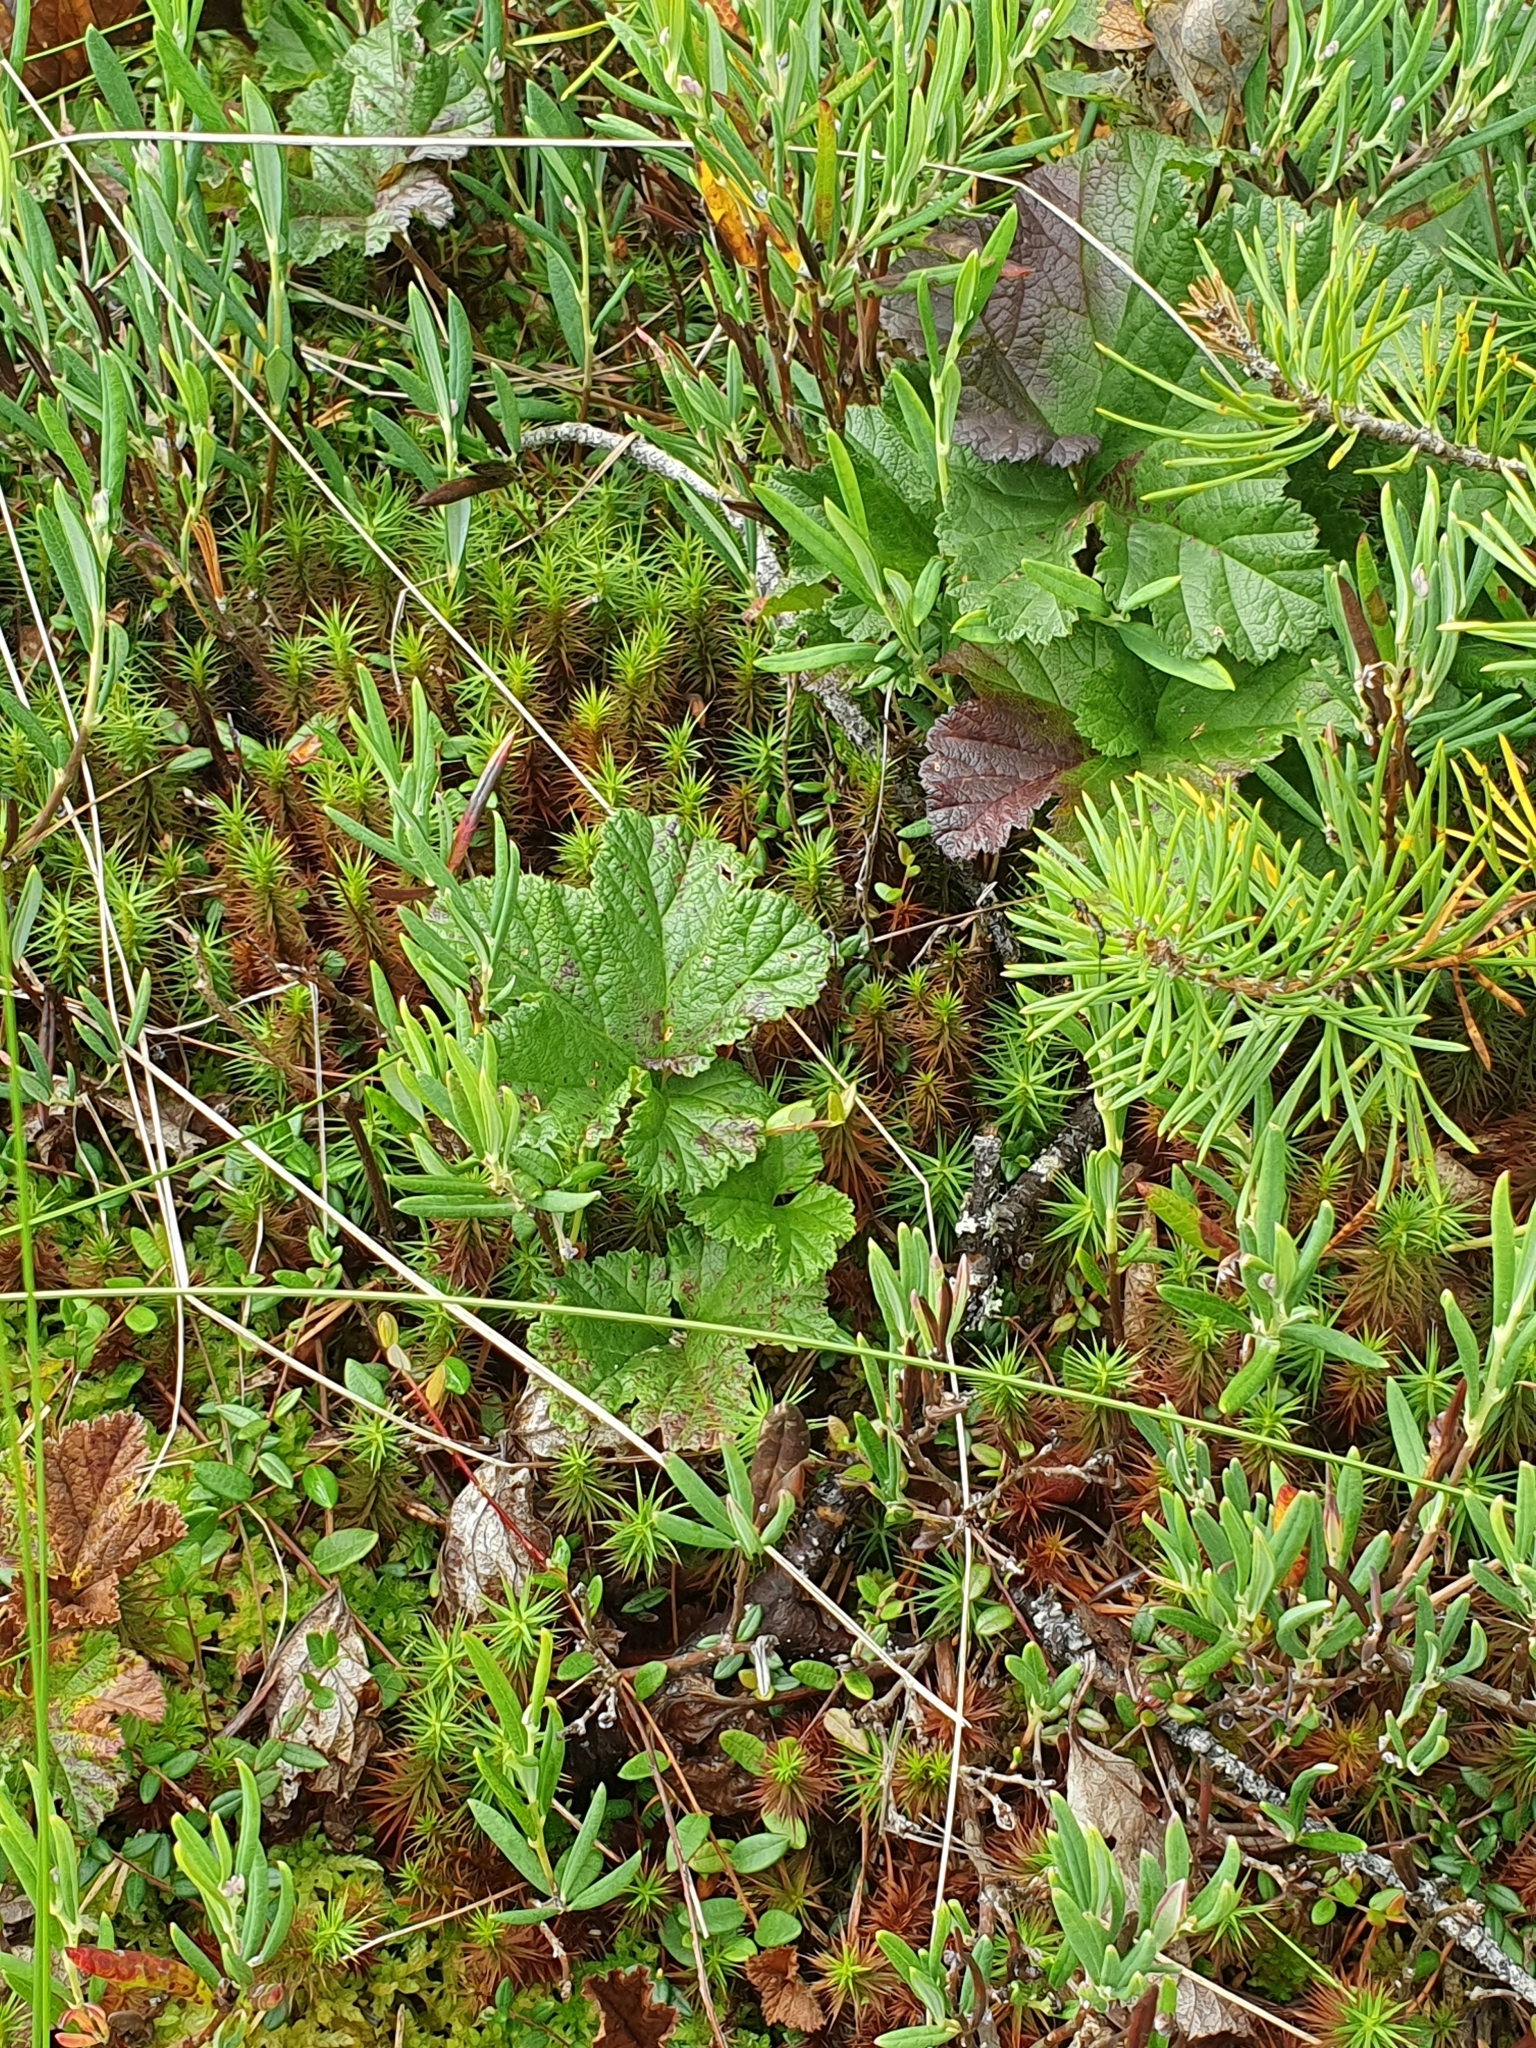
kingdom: Plantae
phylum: Tracheophyta
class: Magnoliopsida
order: Rosales
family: Rosaceae
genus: Rubus
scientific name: Rubus chamaemorus
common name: Cloudberry
